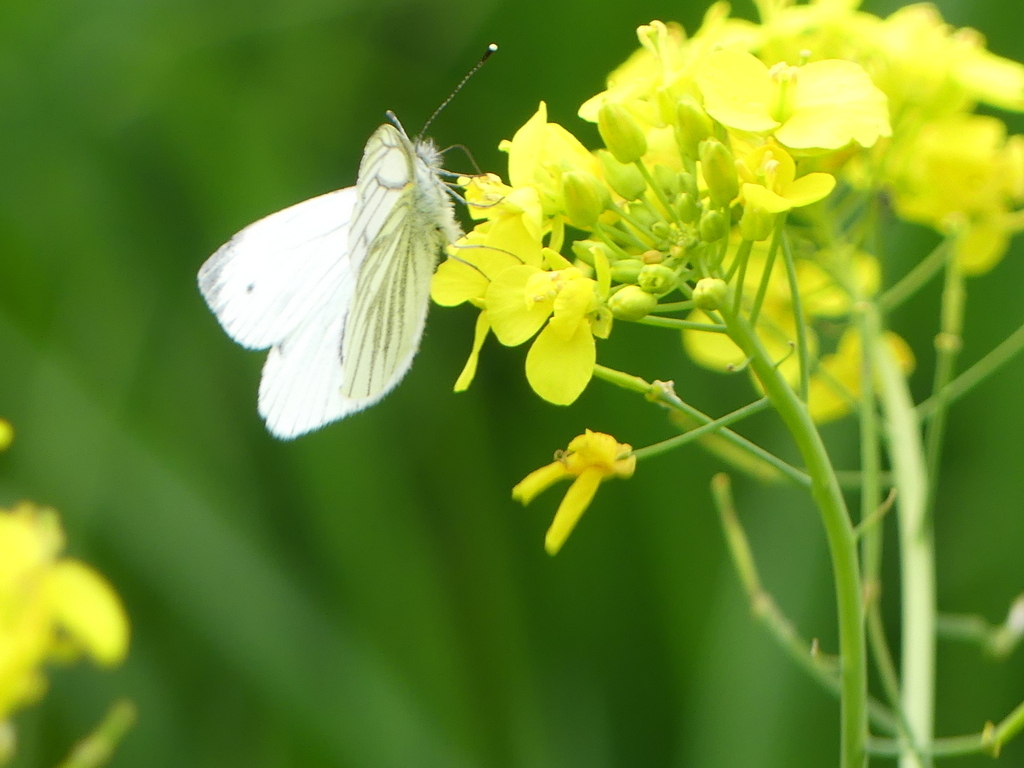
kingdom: Animalia
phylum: Arthropoda
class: Insecta
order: Lepidoptera
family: Pieridae
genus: Pieris
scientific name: Pieris napi
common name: Green-veined white
